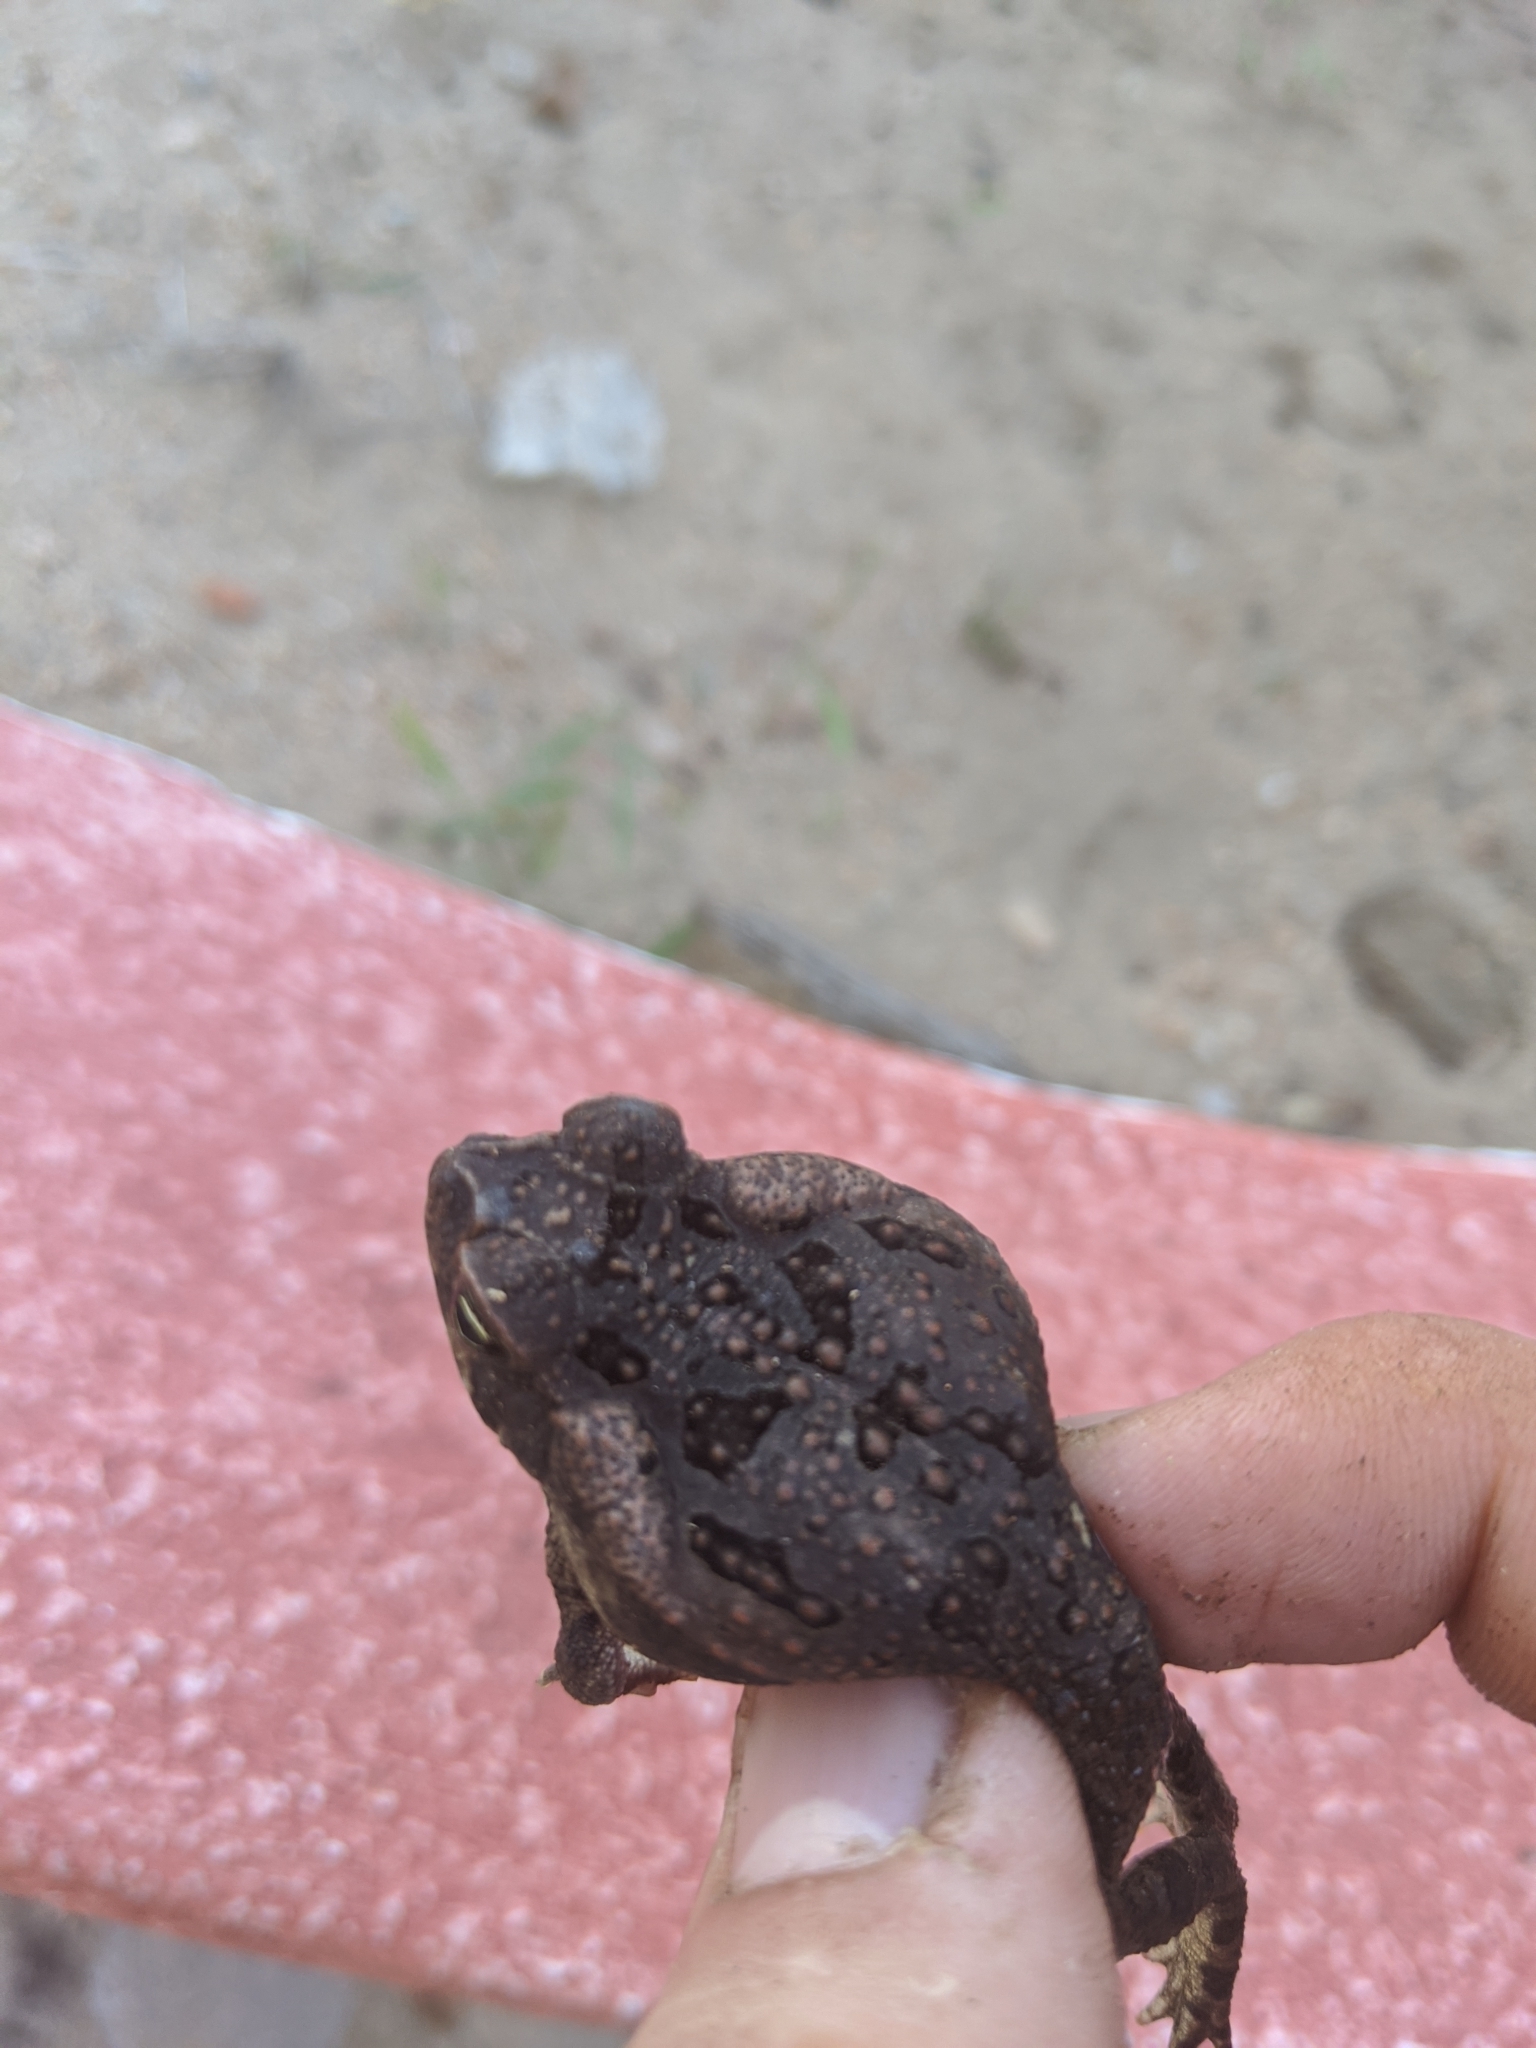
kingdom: Animalia
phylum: Chordata
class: Amphibia
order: Anura
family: Bufonidae
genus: Rhinella
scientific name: Rhinella horribilis
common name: Mesoamerican cane toad
